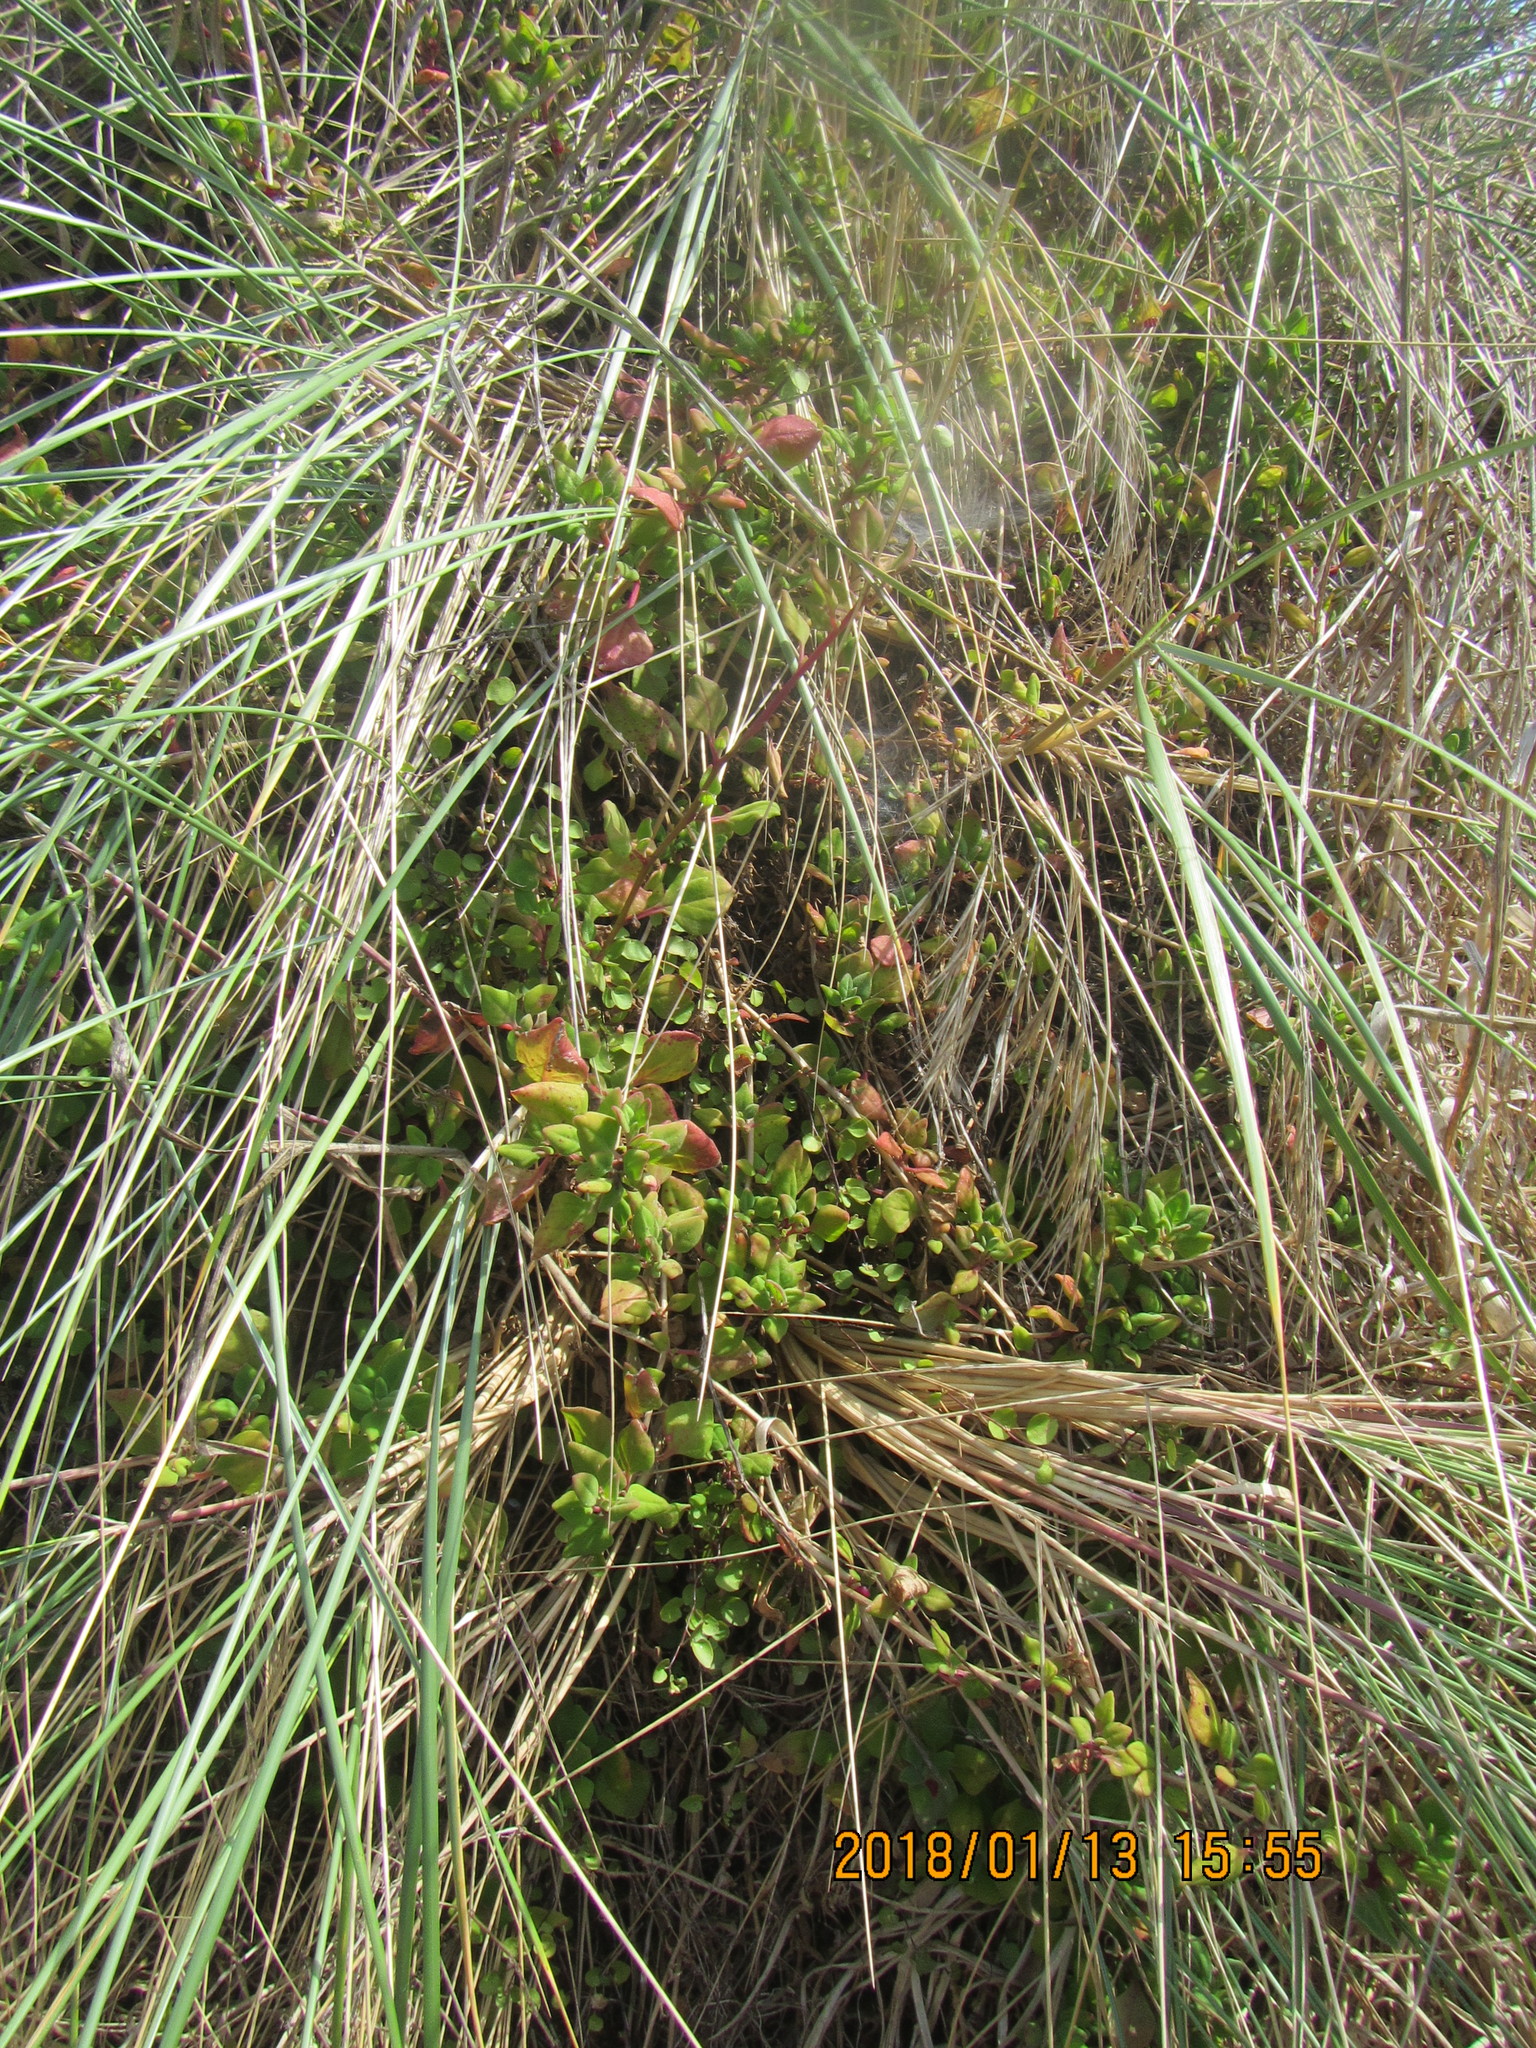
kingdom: Plantae
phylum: Tracheophyta
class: Magnoliopsida
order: Caryophyllales
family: Aizoaceae
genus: Tetragonia
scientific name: Tetragonia implexicoma
